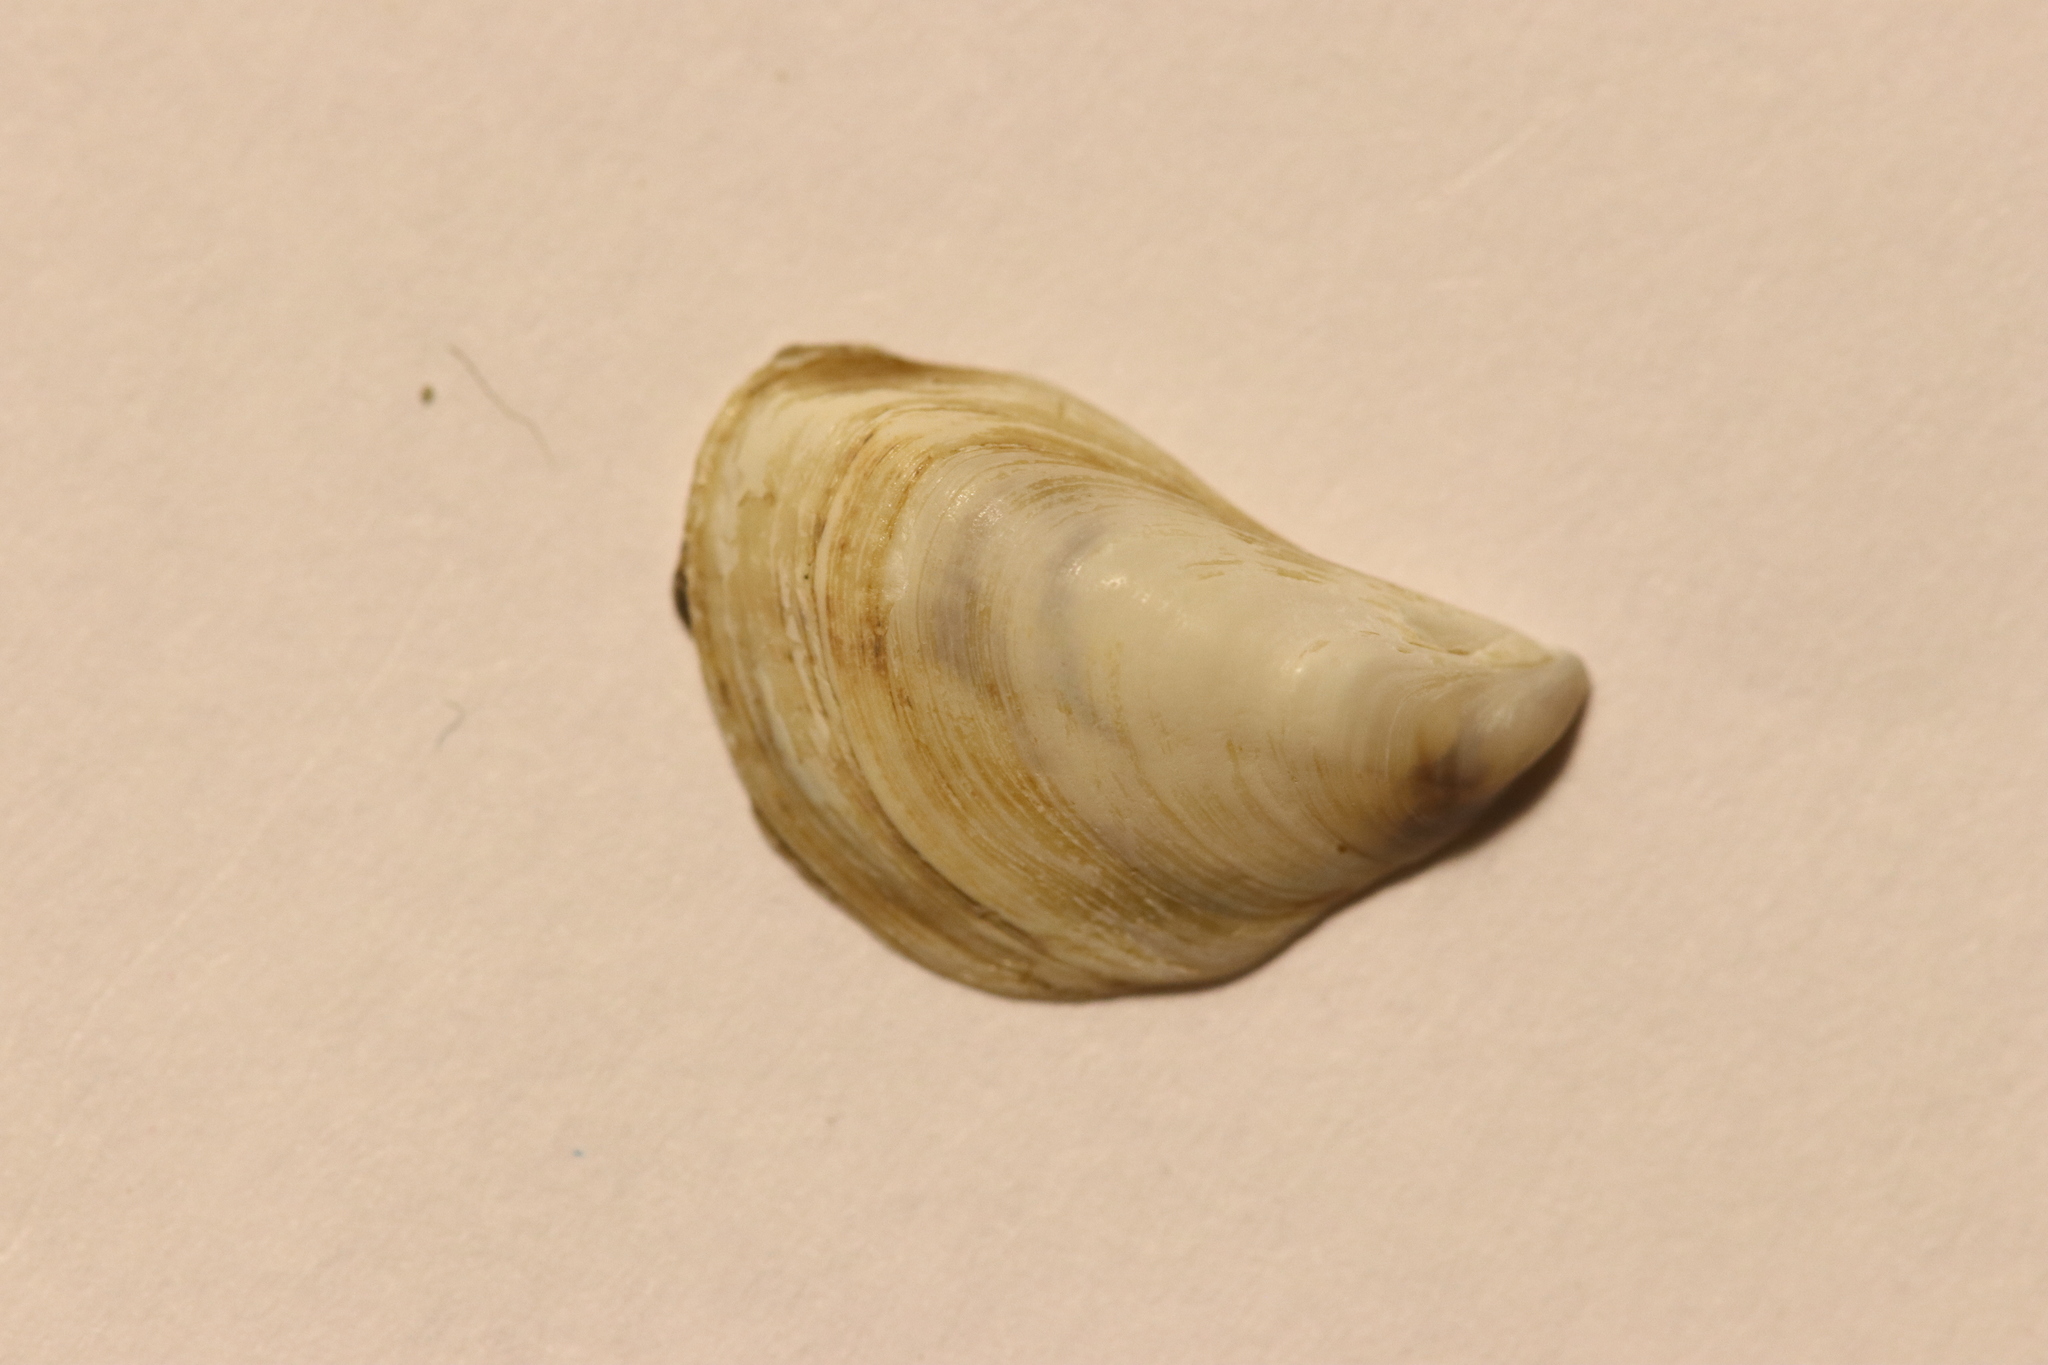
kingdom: Animalia
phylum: Mollusca
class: Bivalvia
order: Myida
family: Dreissenidae
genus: Dreissena
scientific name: Dreissena bugensis
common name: Quagga mussel
